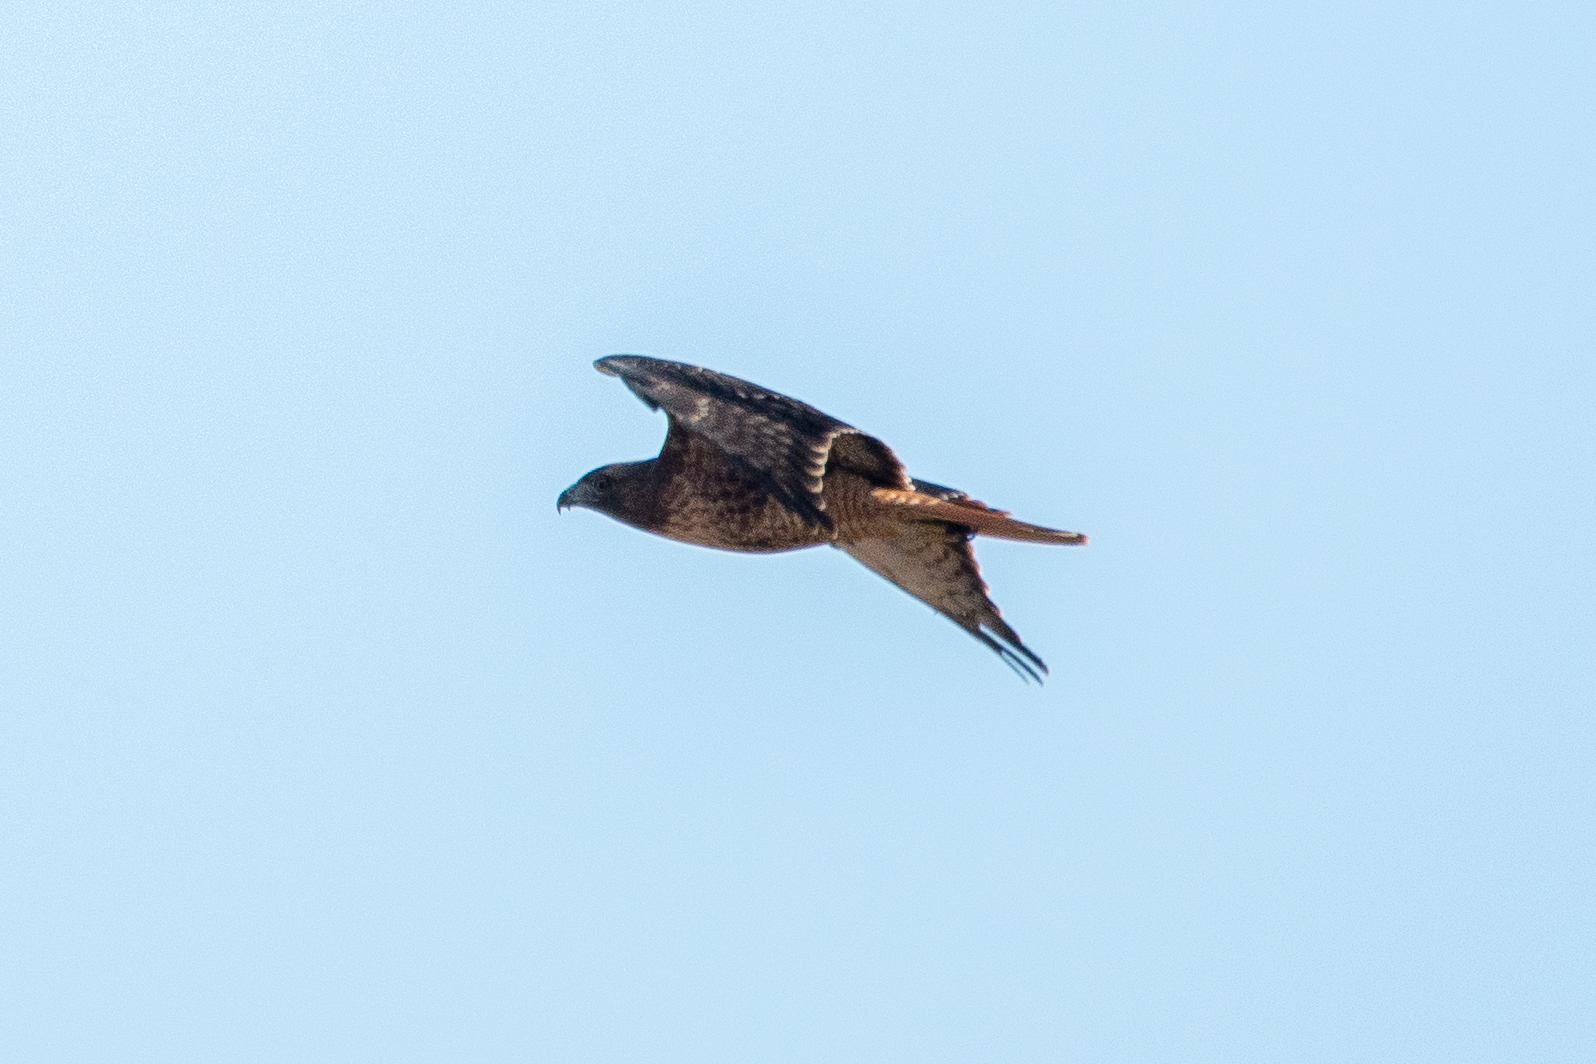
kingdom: Animalia
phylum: Chordata
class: Aves
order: Accipitriformes
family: Accipitridae
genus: Buteo
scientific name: Buteo jamaicensis
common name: Red-tailed hawk
